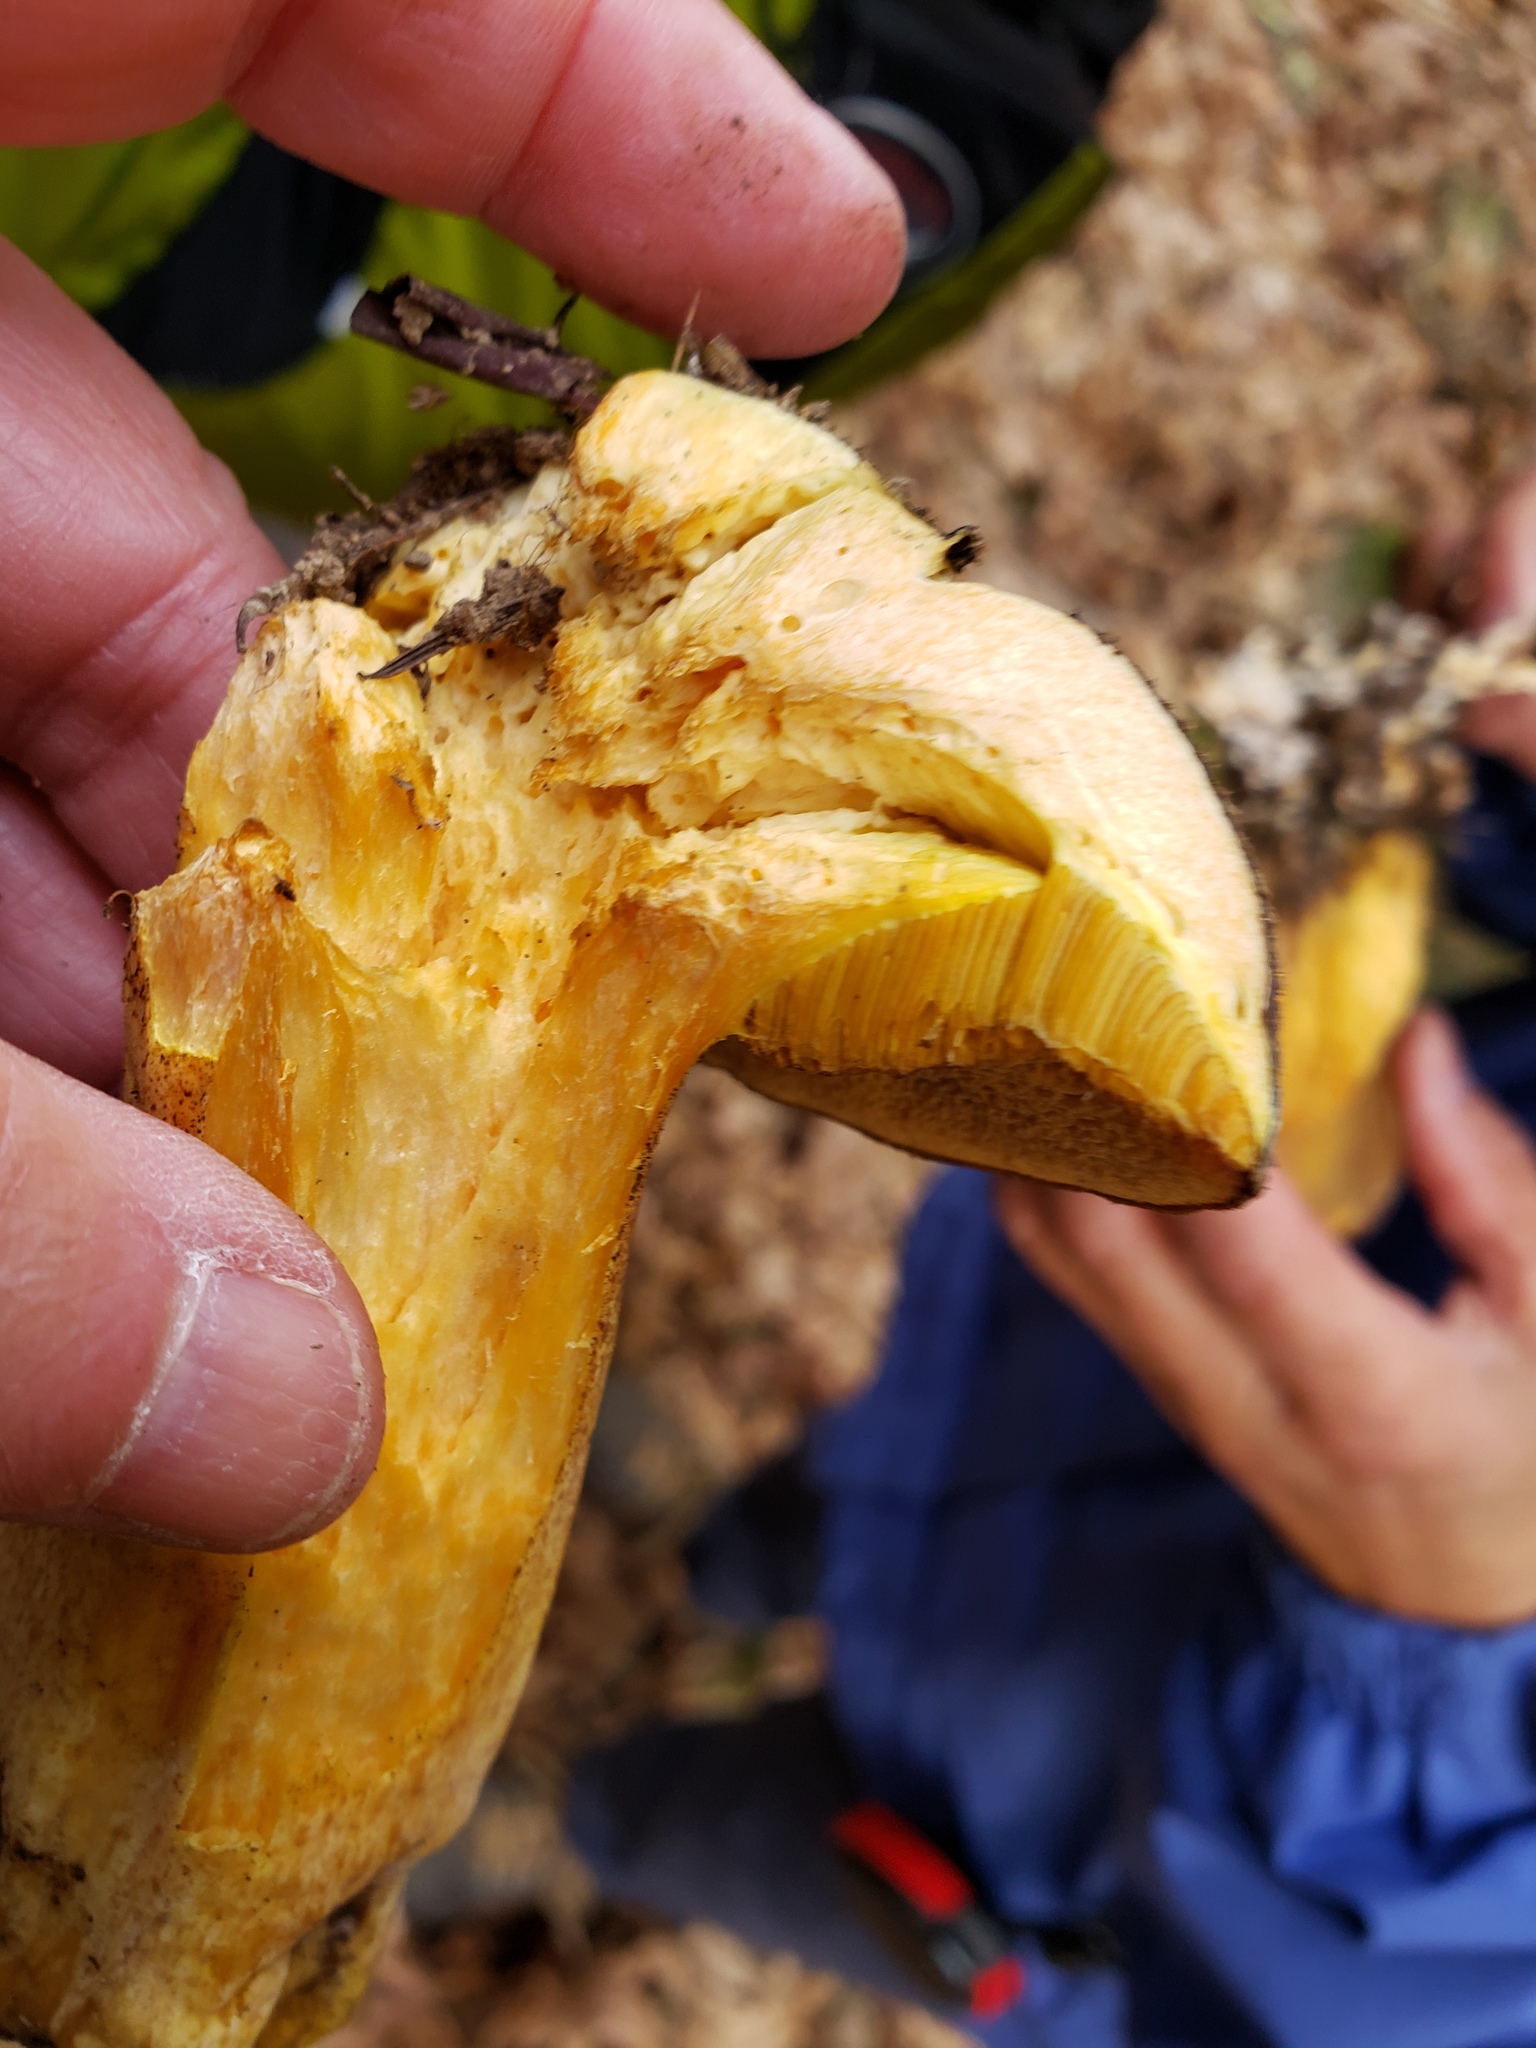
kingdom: Fungi
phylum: Basidiomycota
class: Agaricomycetes
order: Boletales
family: Suillaceae
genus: Suillus
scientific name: Suillus fuscotomentosus
